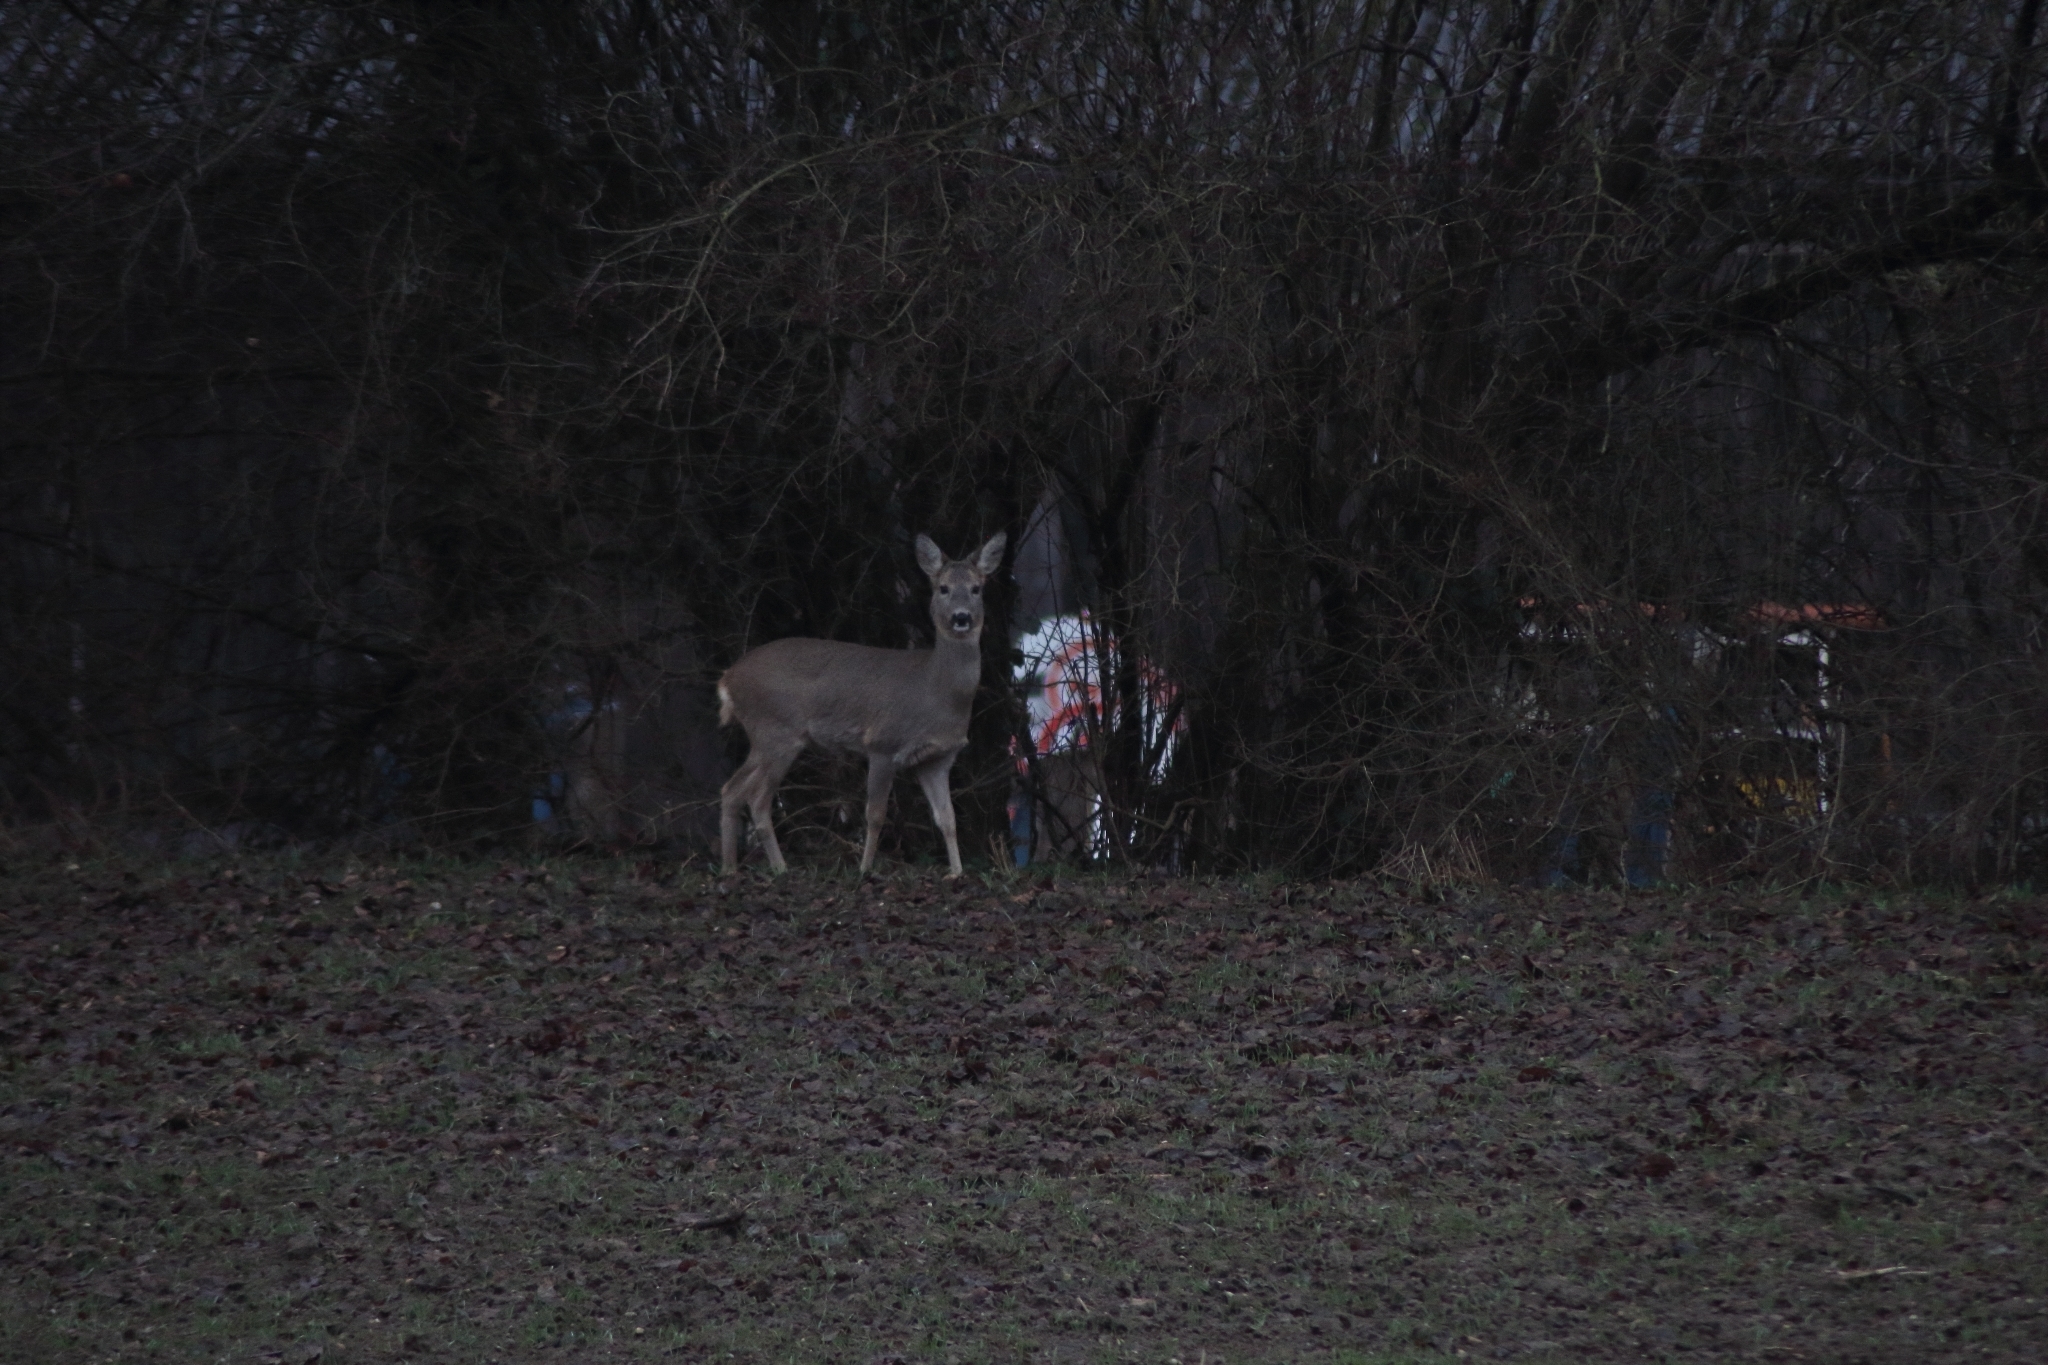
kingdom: Animalia
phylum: Chordata
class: Mammalia
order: Artiodactyla
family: Cervidae
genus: Capreolus
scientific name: Capreolus capreolus
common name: Western roe deer
